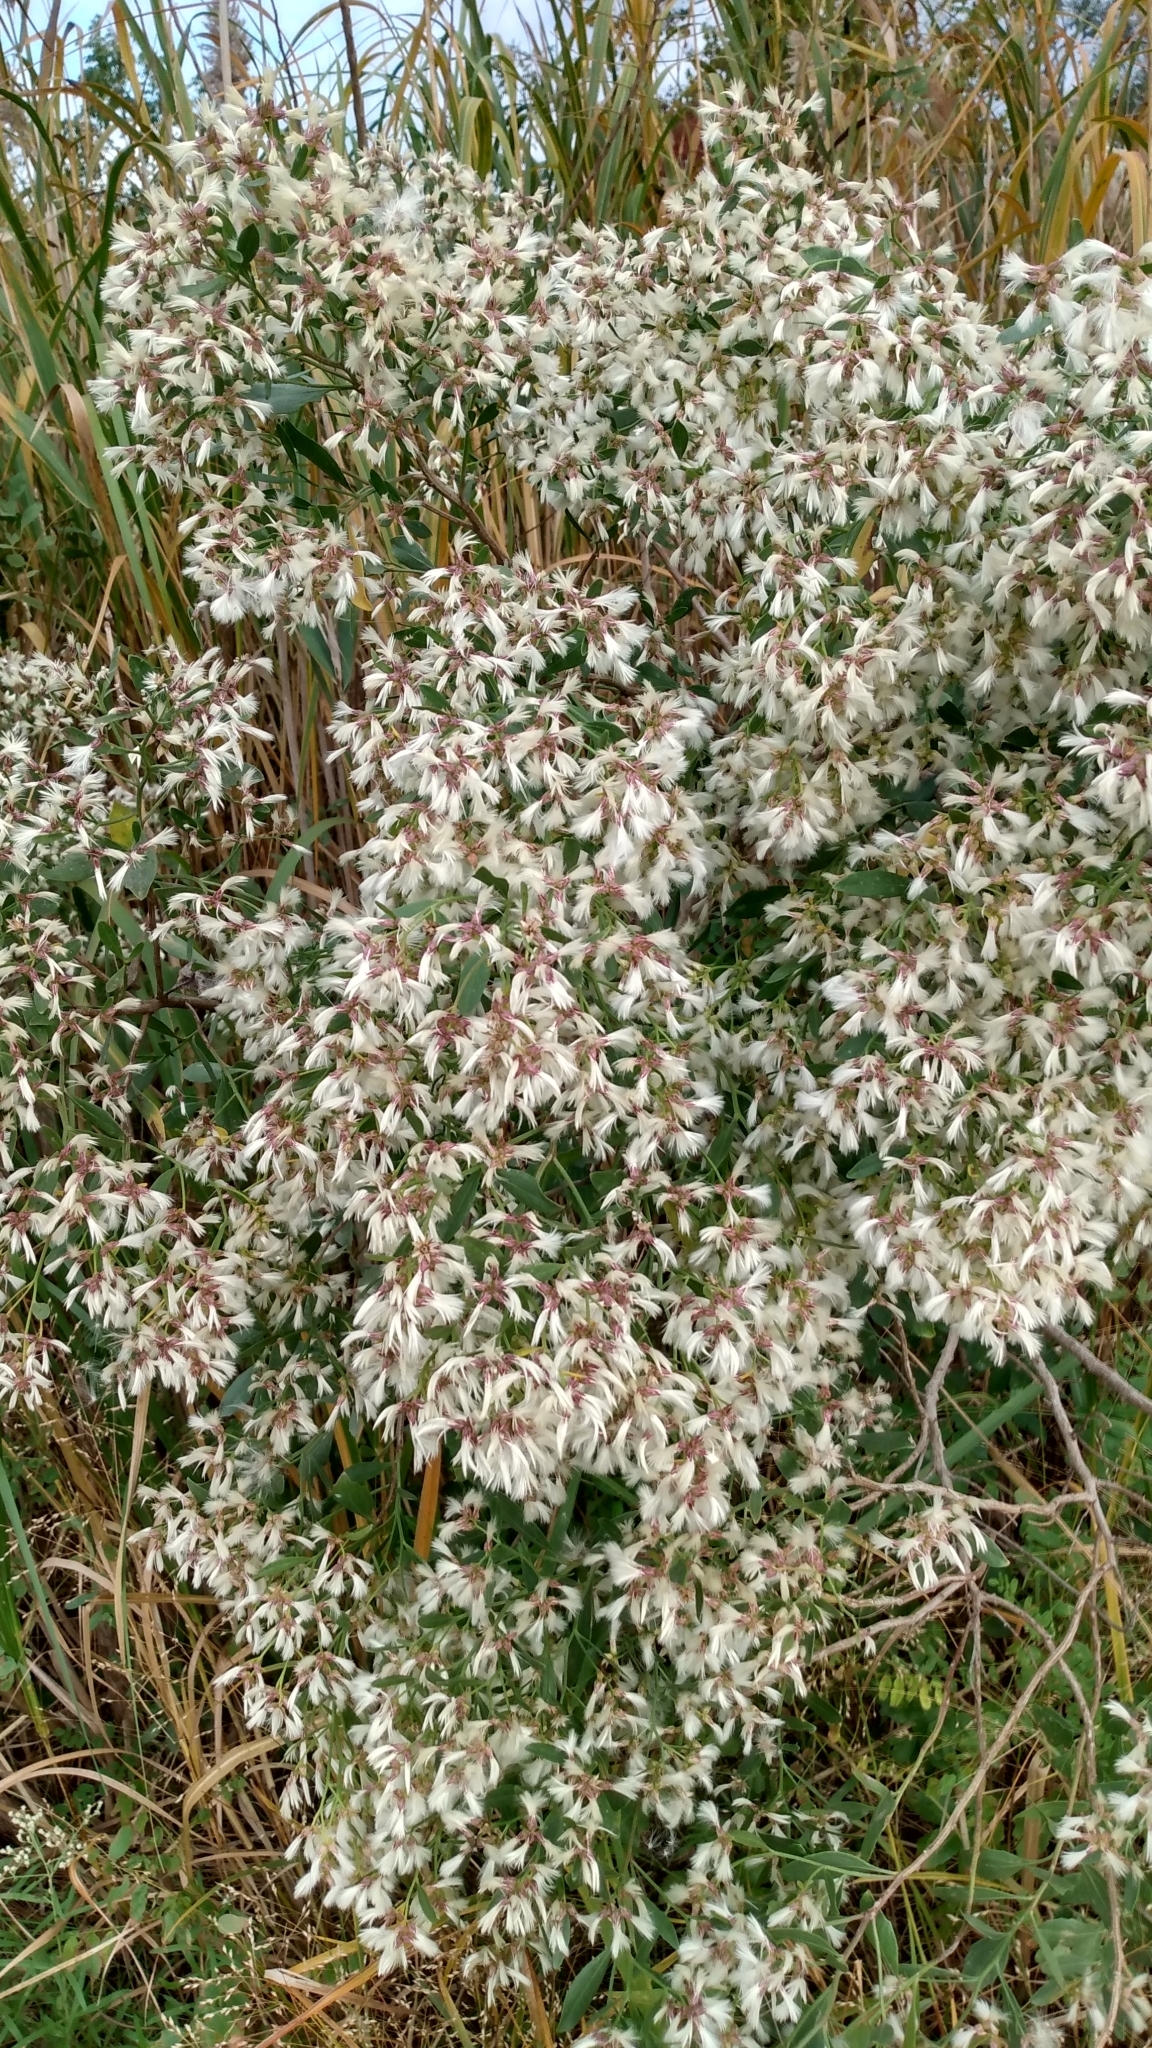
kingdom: Plantae
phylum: Tracheophyta
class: Magnoliopsida
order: Asterales
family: Asteraceae
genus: Baccharis
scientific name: Baccharis halimifolia
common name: Eastern baccharis
